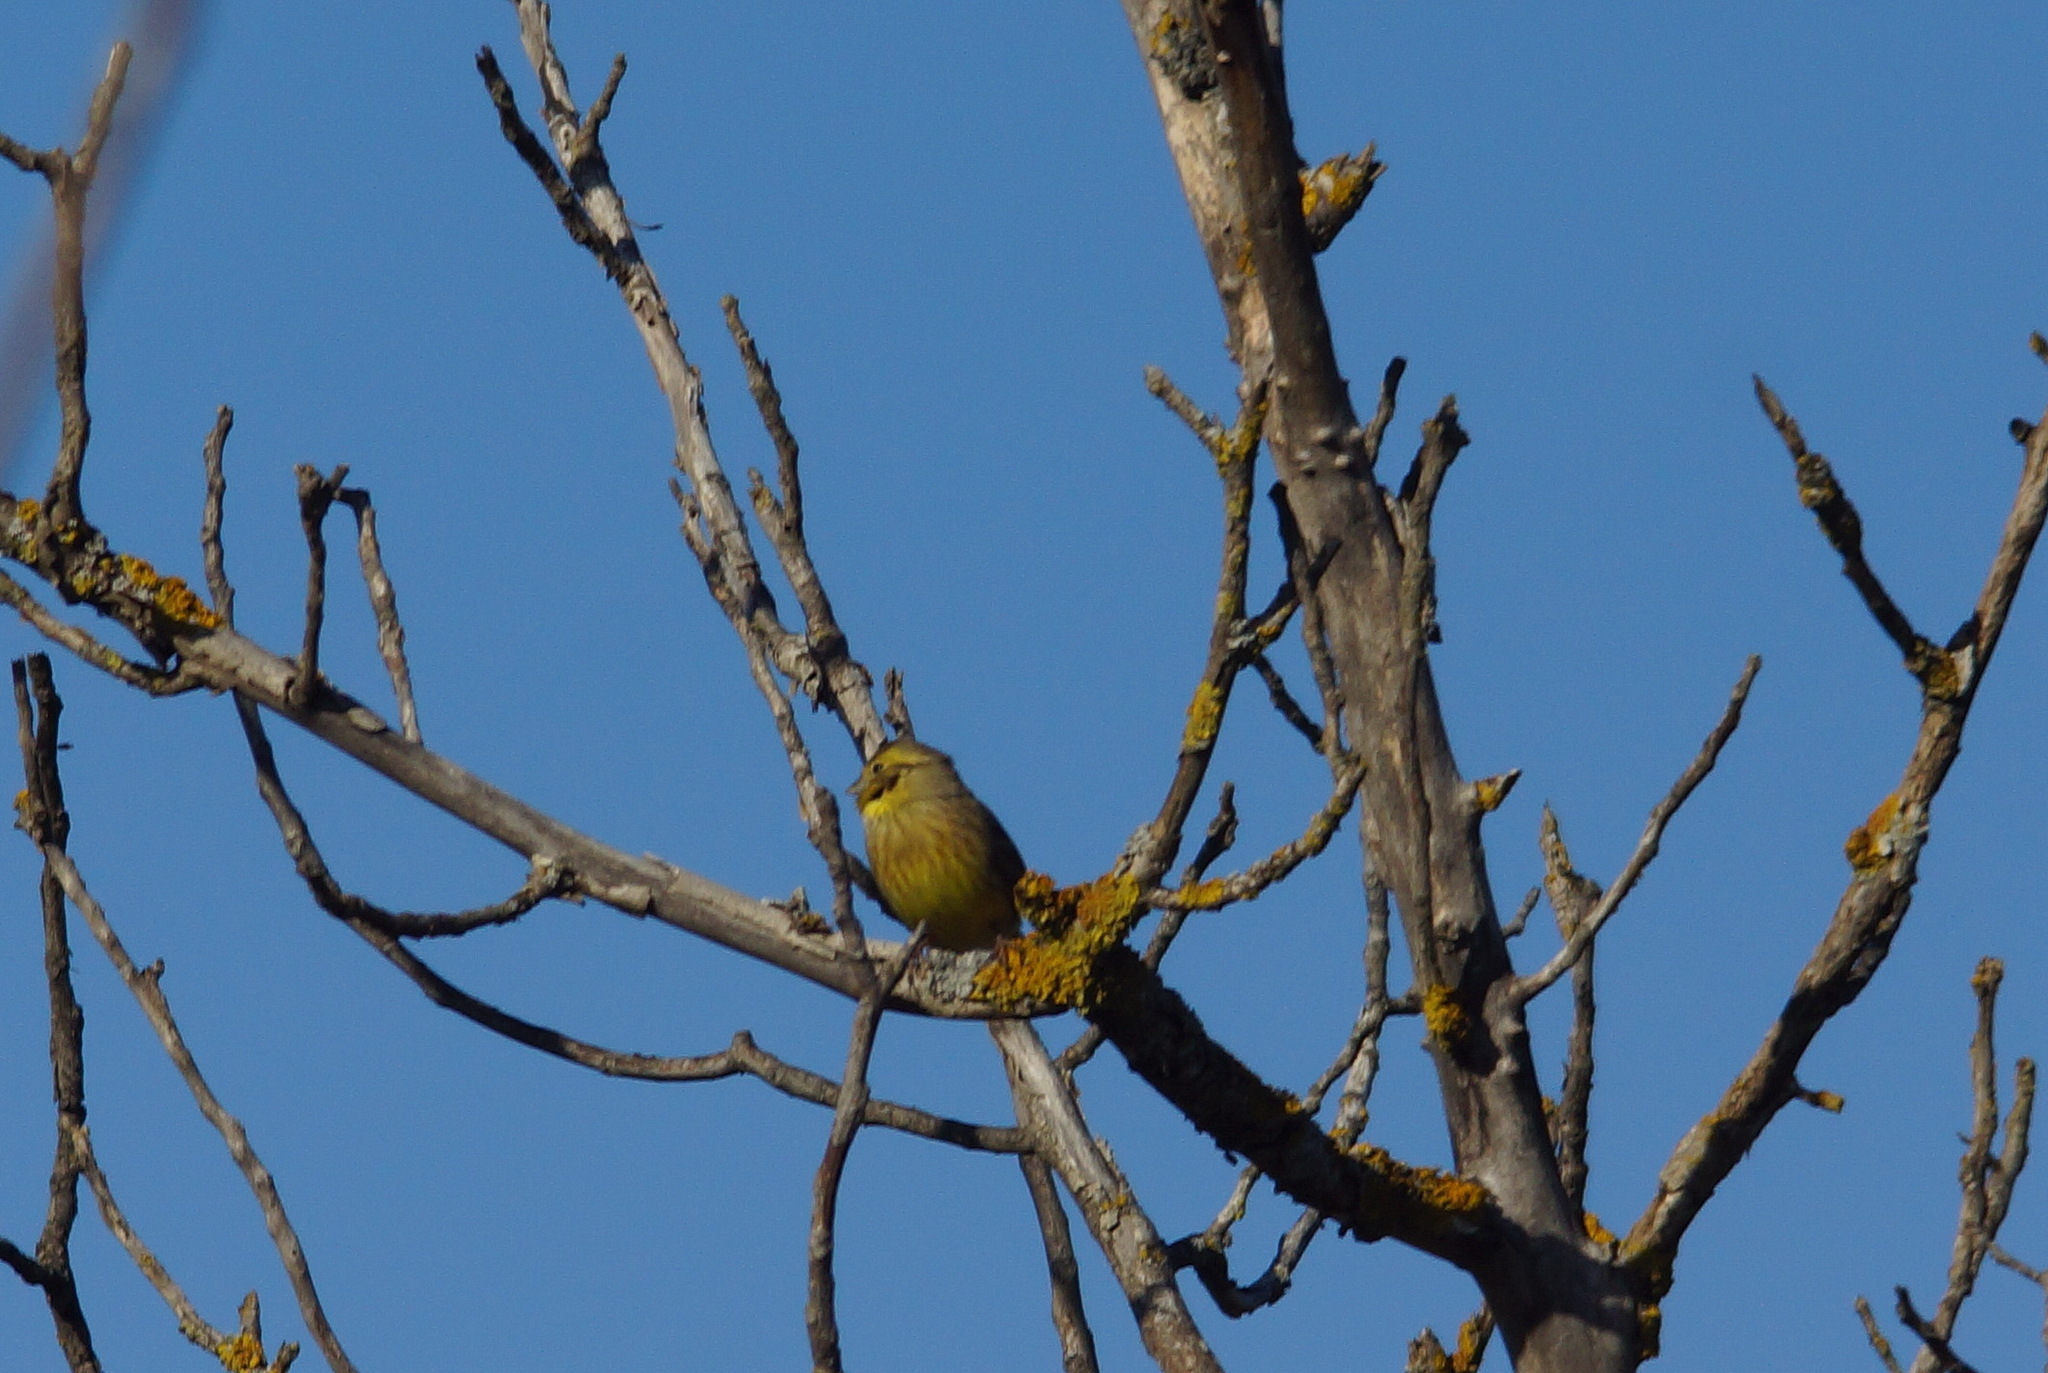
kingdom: Animalia
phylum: Chordata
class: Aves
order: Passeriformes
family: Emberizidae
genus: Emberiza
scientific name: Emberiza citrinella
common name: Yellowhammer
